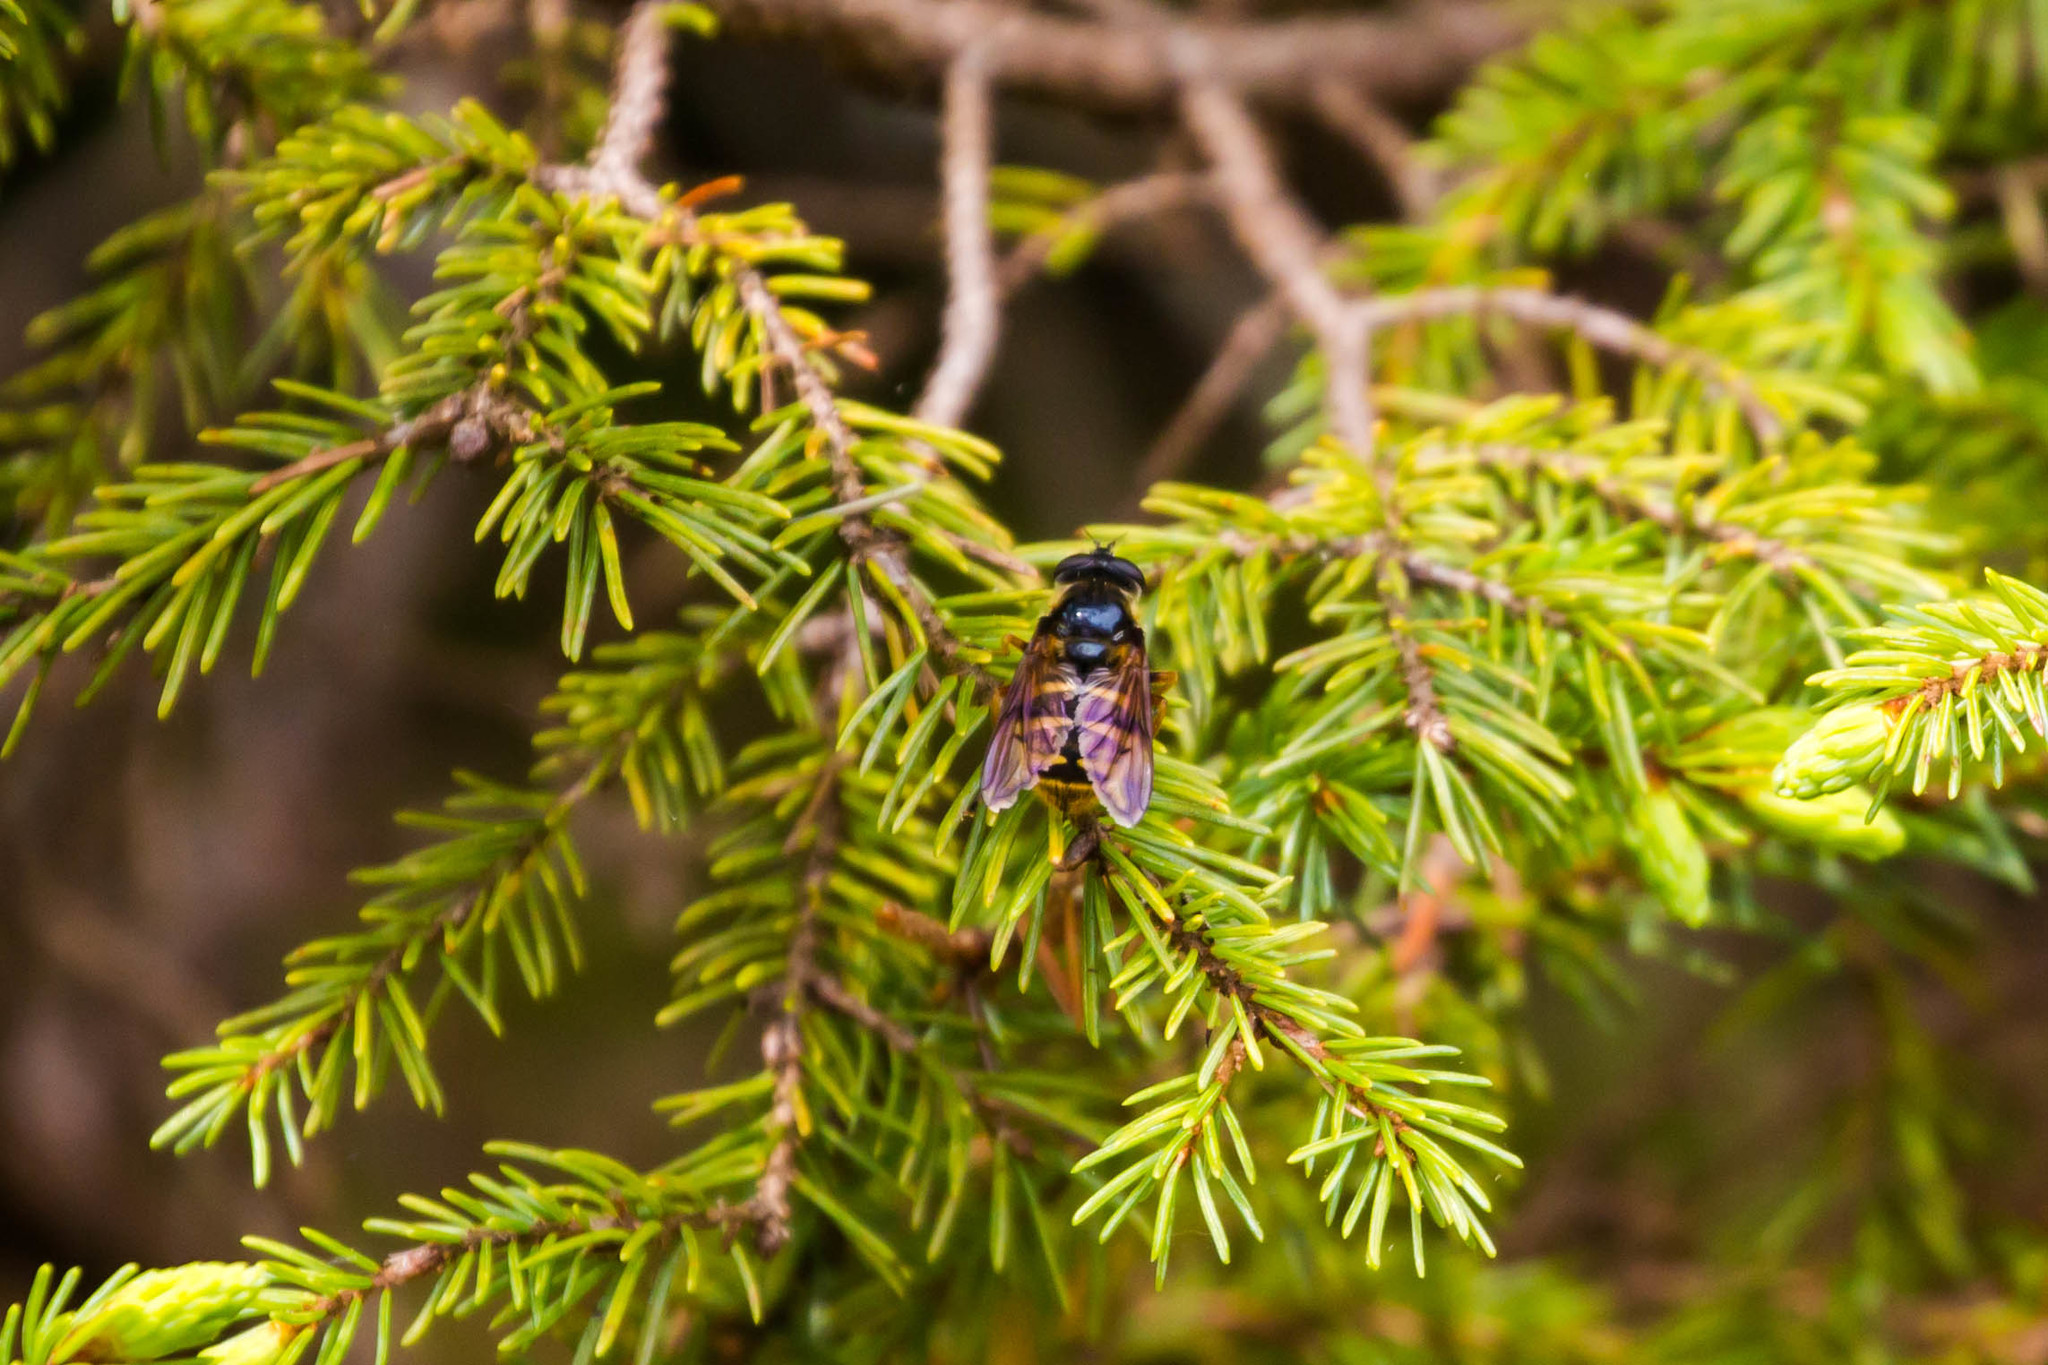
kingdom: Animalia
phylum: Arthropoda
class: Insecta
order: Diptera
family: Syrphidae
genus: Sericomyia
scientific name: Sericomyia bifasciata
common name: Long-nosed pond fly
